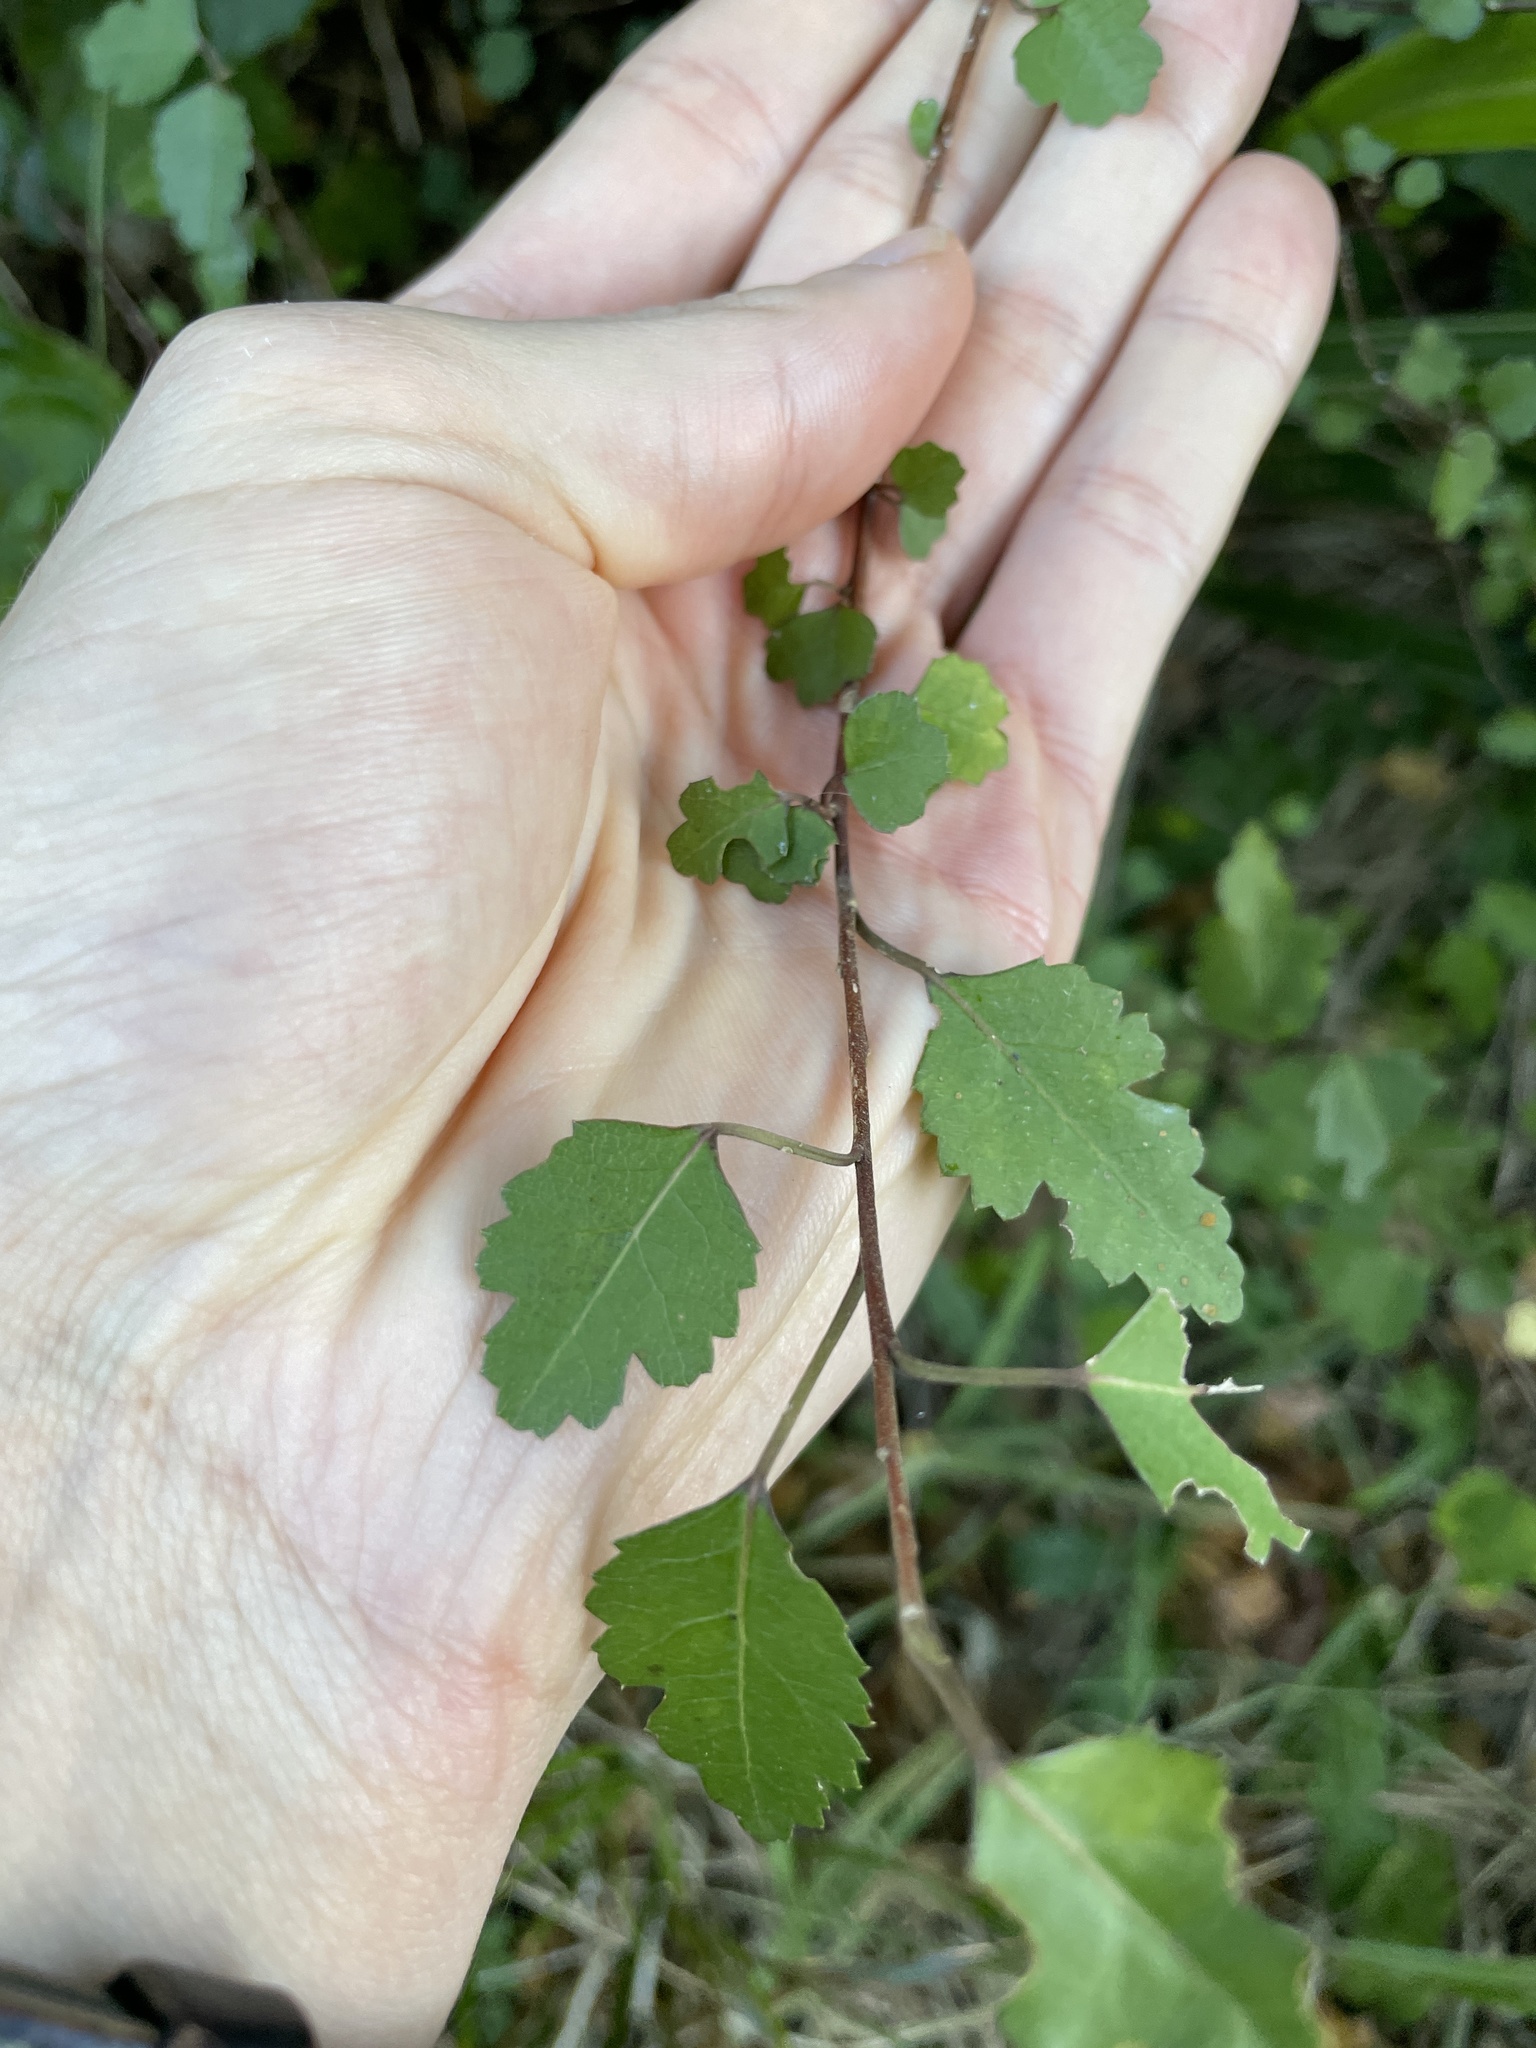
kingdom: Plantae
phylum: Tracheophyta
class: Magnoliopsida
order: Malvales
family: Malvaceae
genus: Plagianthus
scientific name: Plagianthus regius
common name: Manatu
